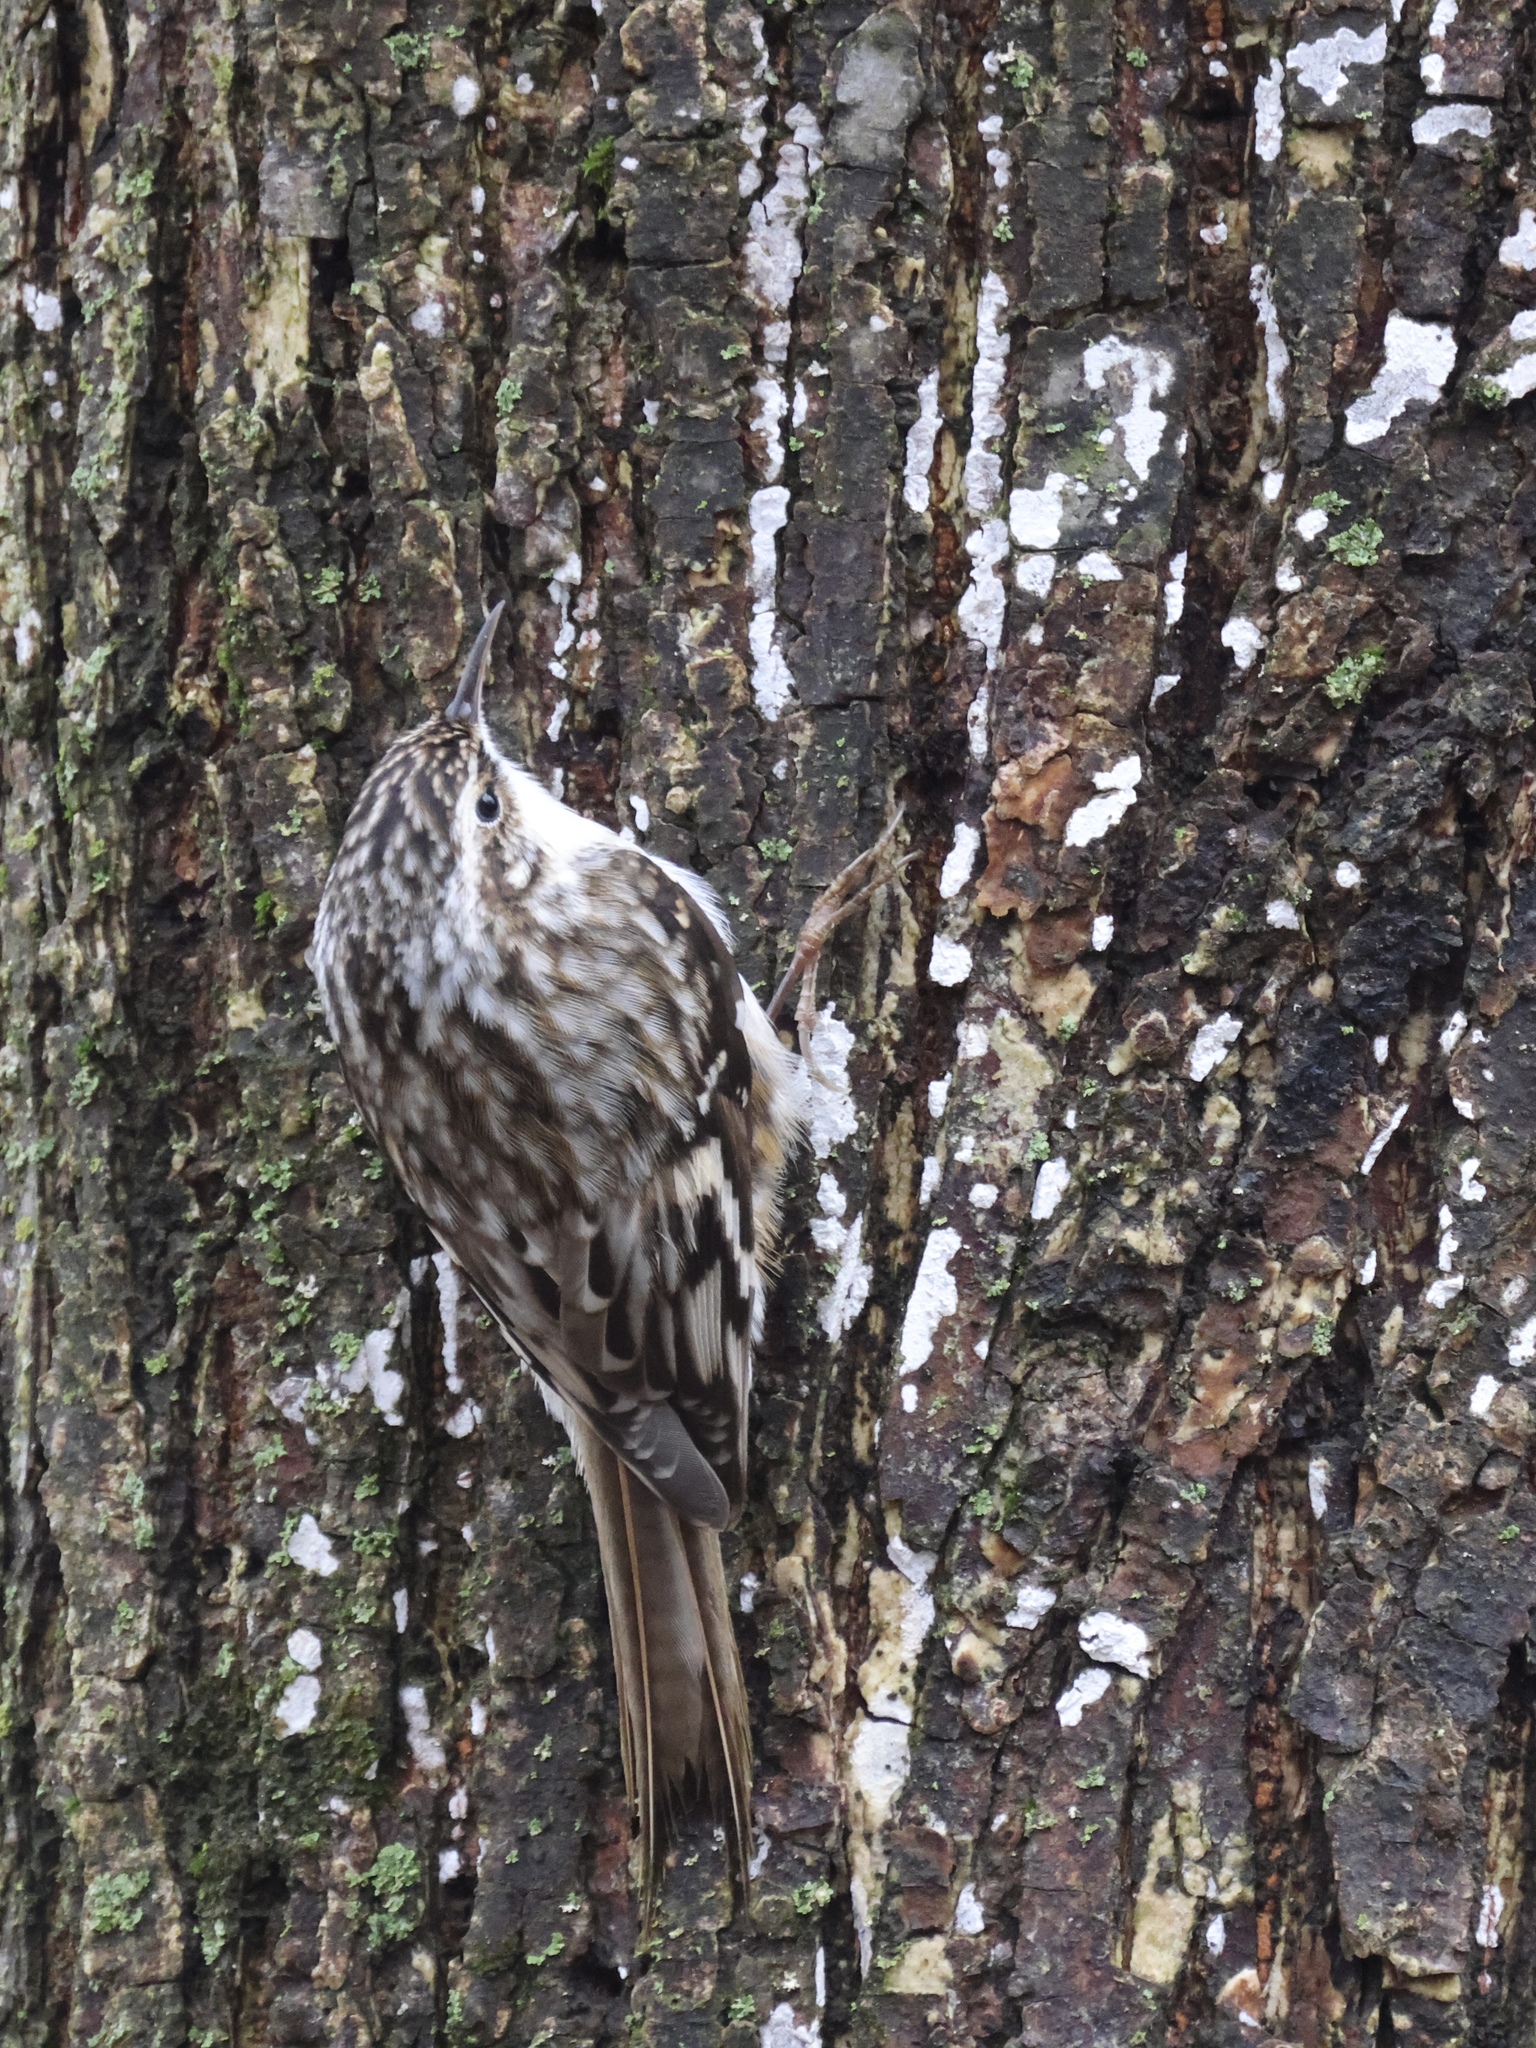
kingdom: Animalia
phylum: Chordata
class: Aves
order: Passeriformes
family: Certhiidae
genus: Certhia
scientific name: Certhia americana
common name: Brown creeper
